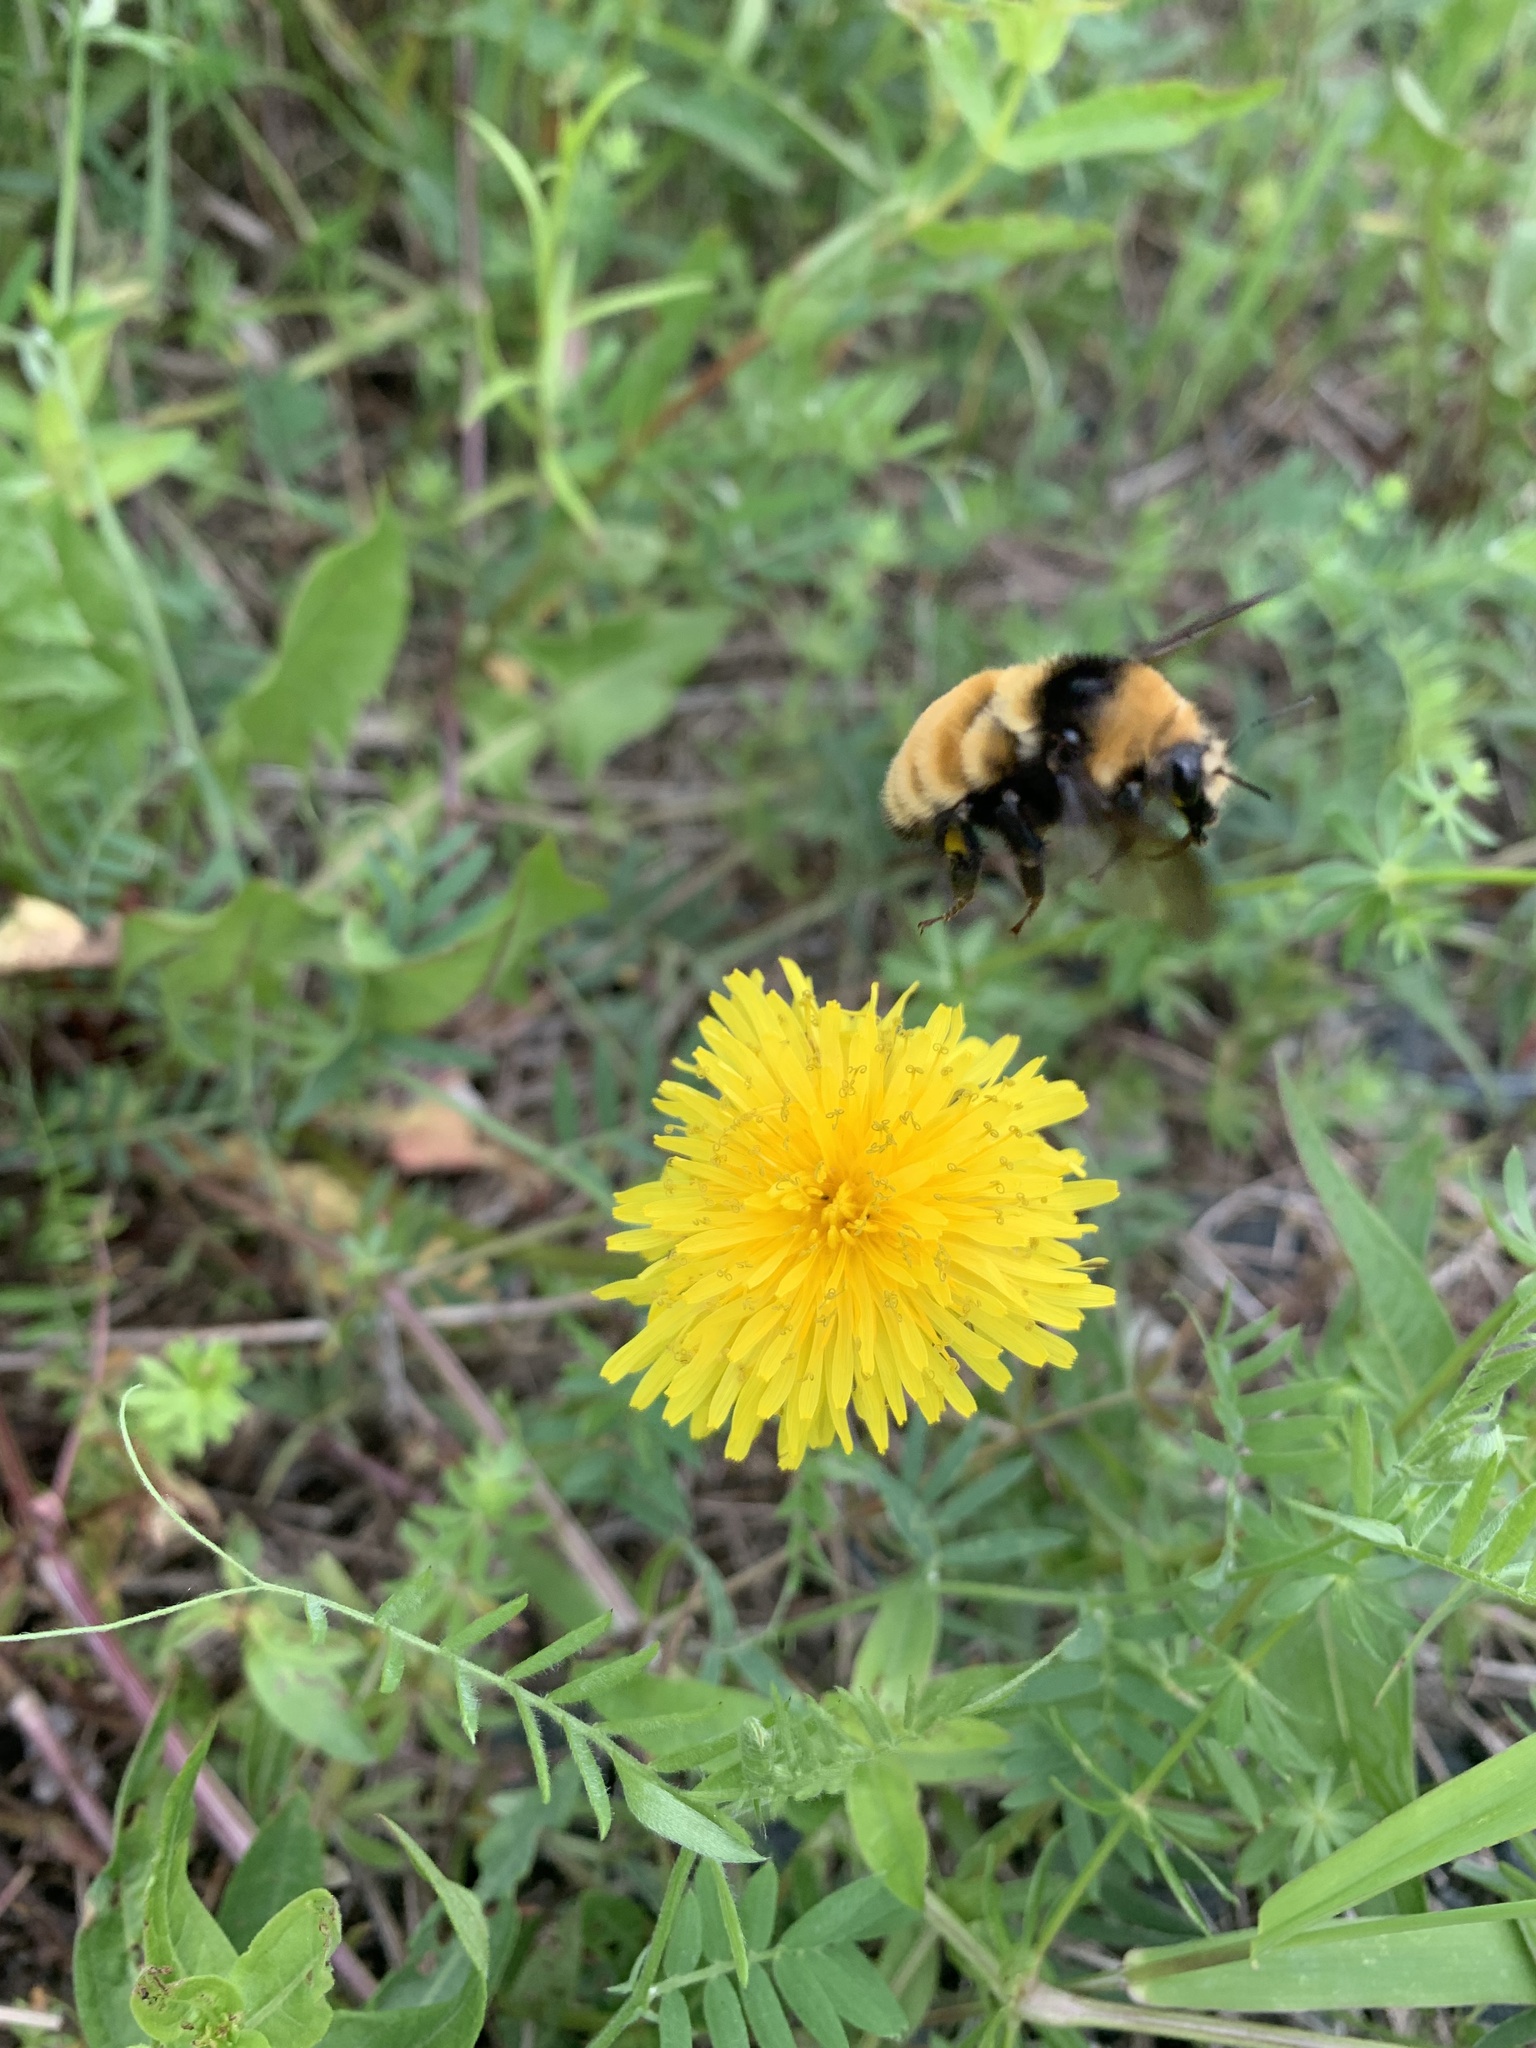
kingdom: Animalia
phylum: Arthropoda
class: Insecta
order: Hymenoptera
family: Apidae
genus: Bombus
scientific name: Bombus borealis
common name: Northern amber bumble bee
